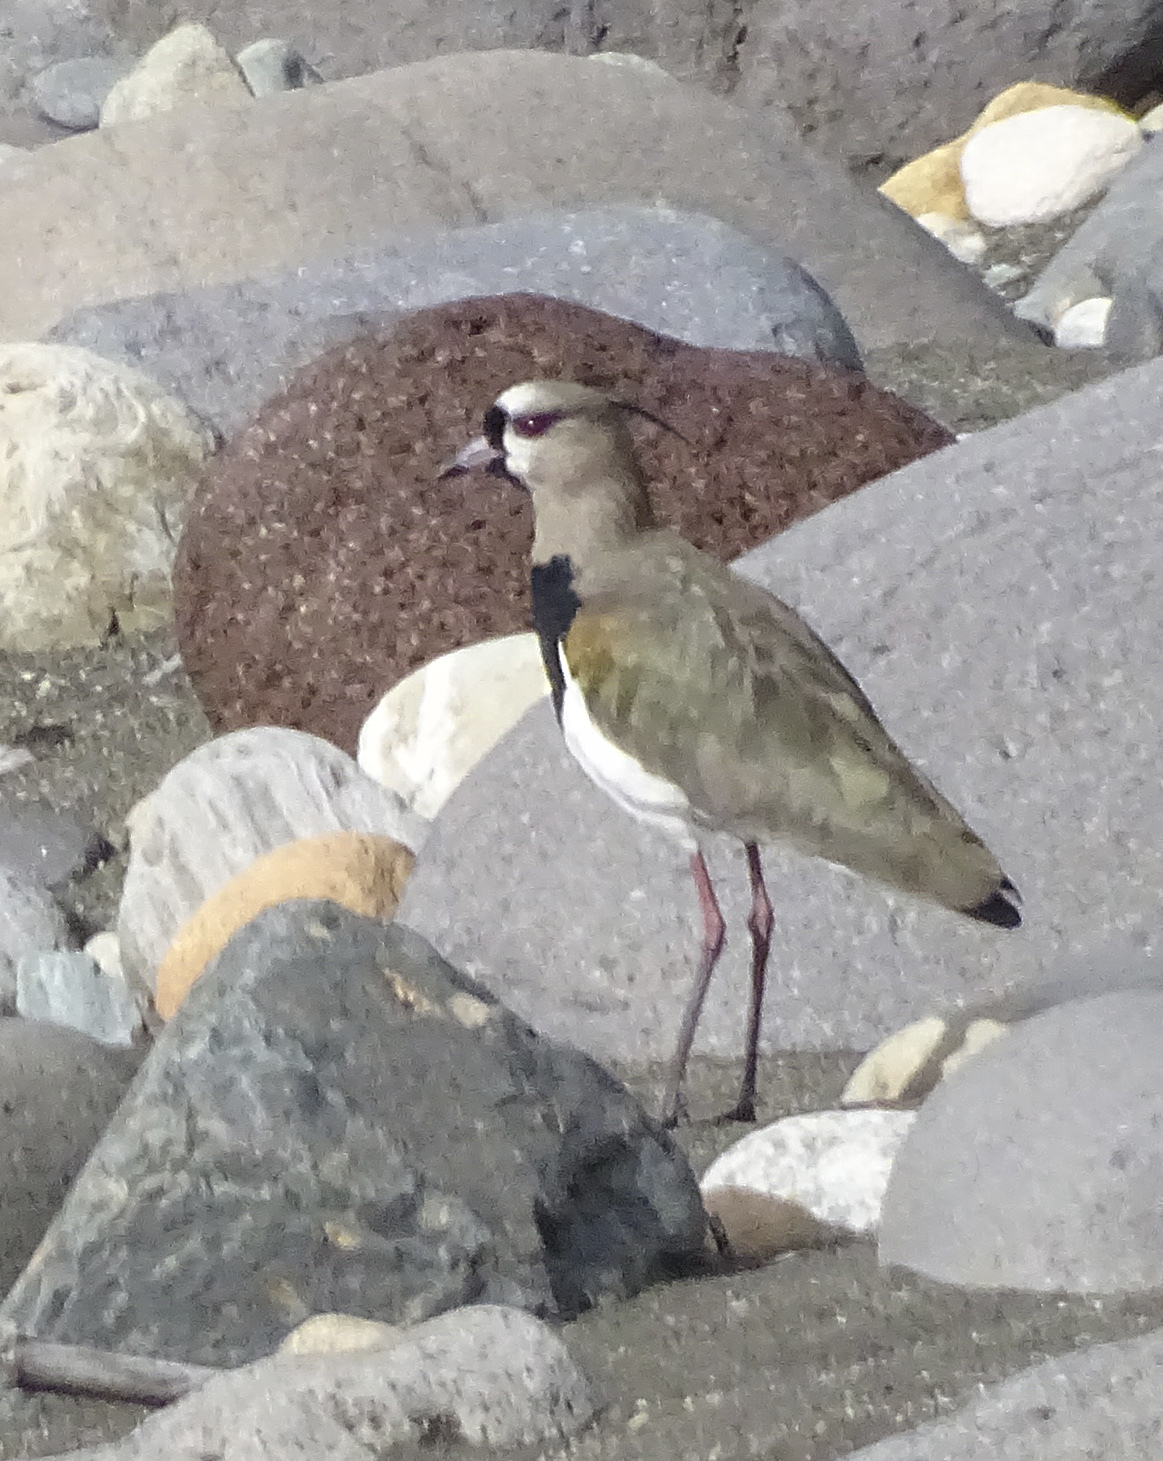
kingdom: Animalia
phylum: Chordata
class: Aves
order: Charadriiformes
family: Charadriidae
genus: Vanellus
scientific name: Vanellus chilensis
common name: Southern lapwing
